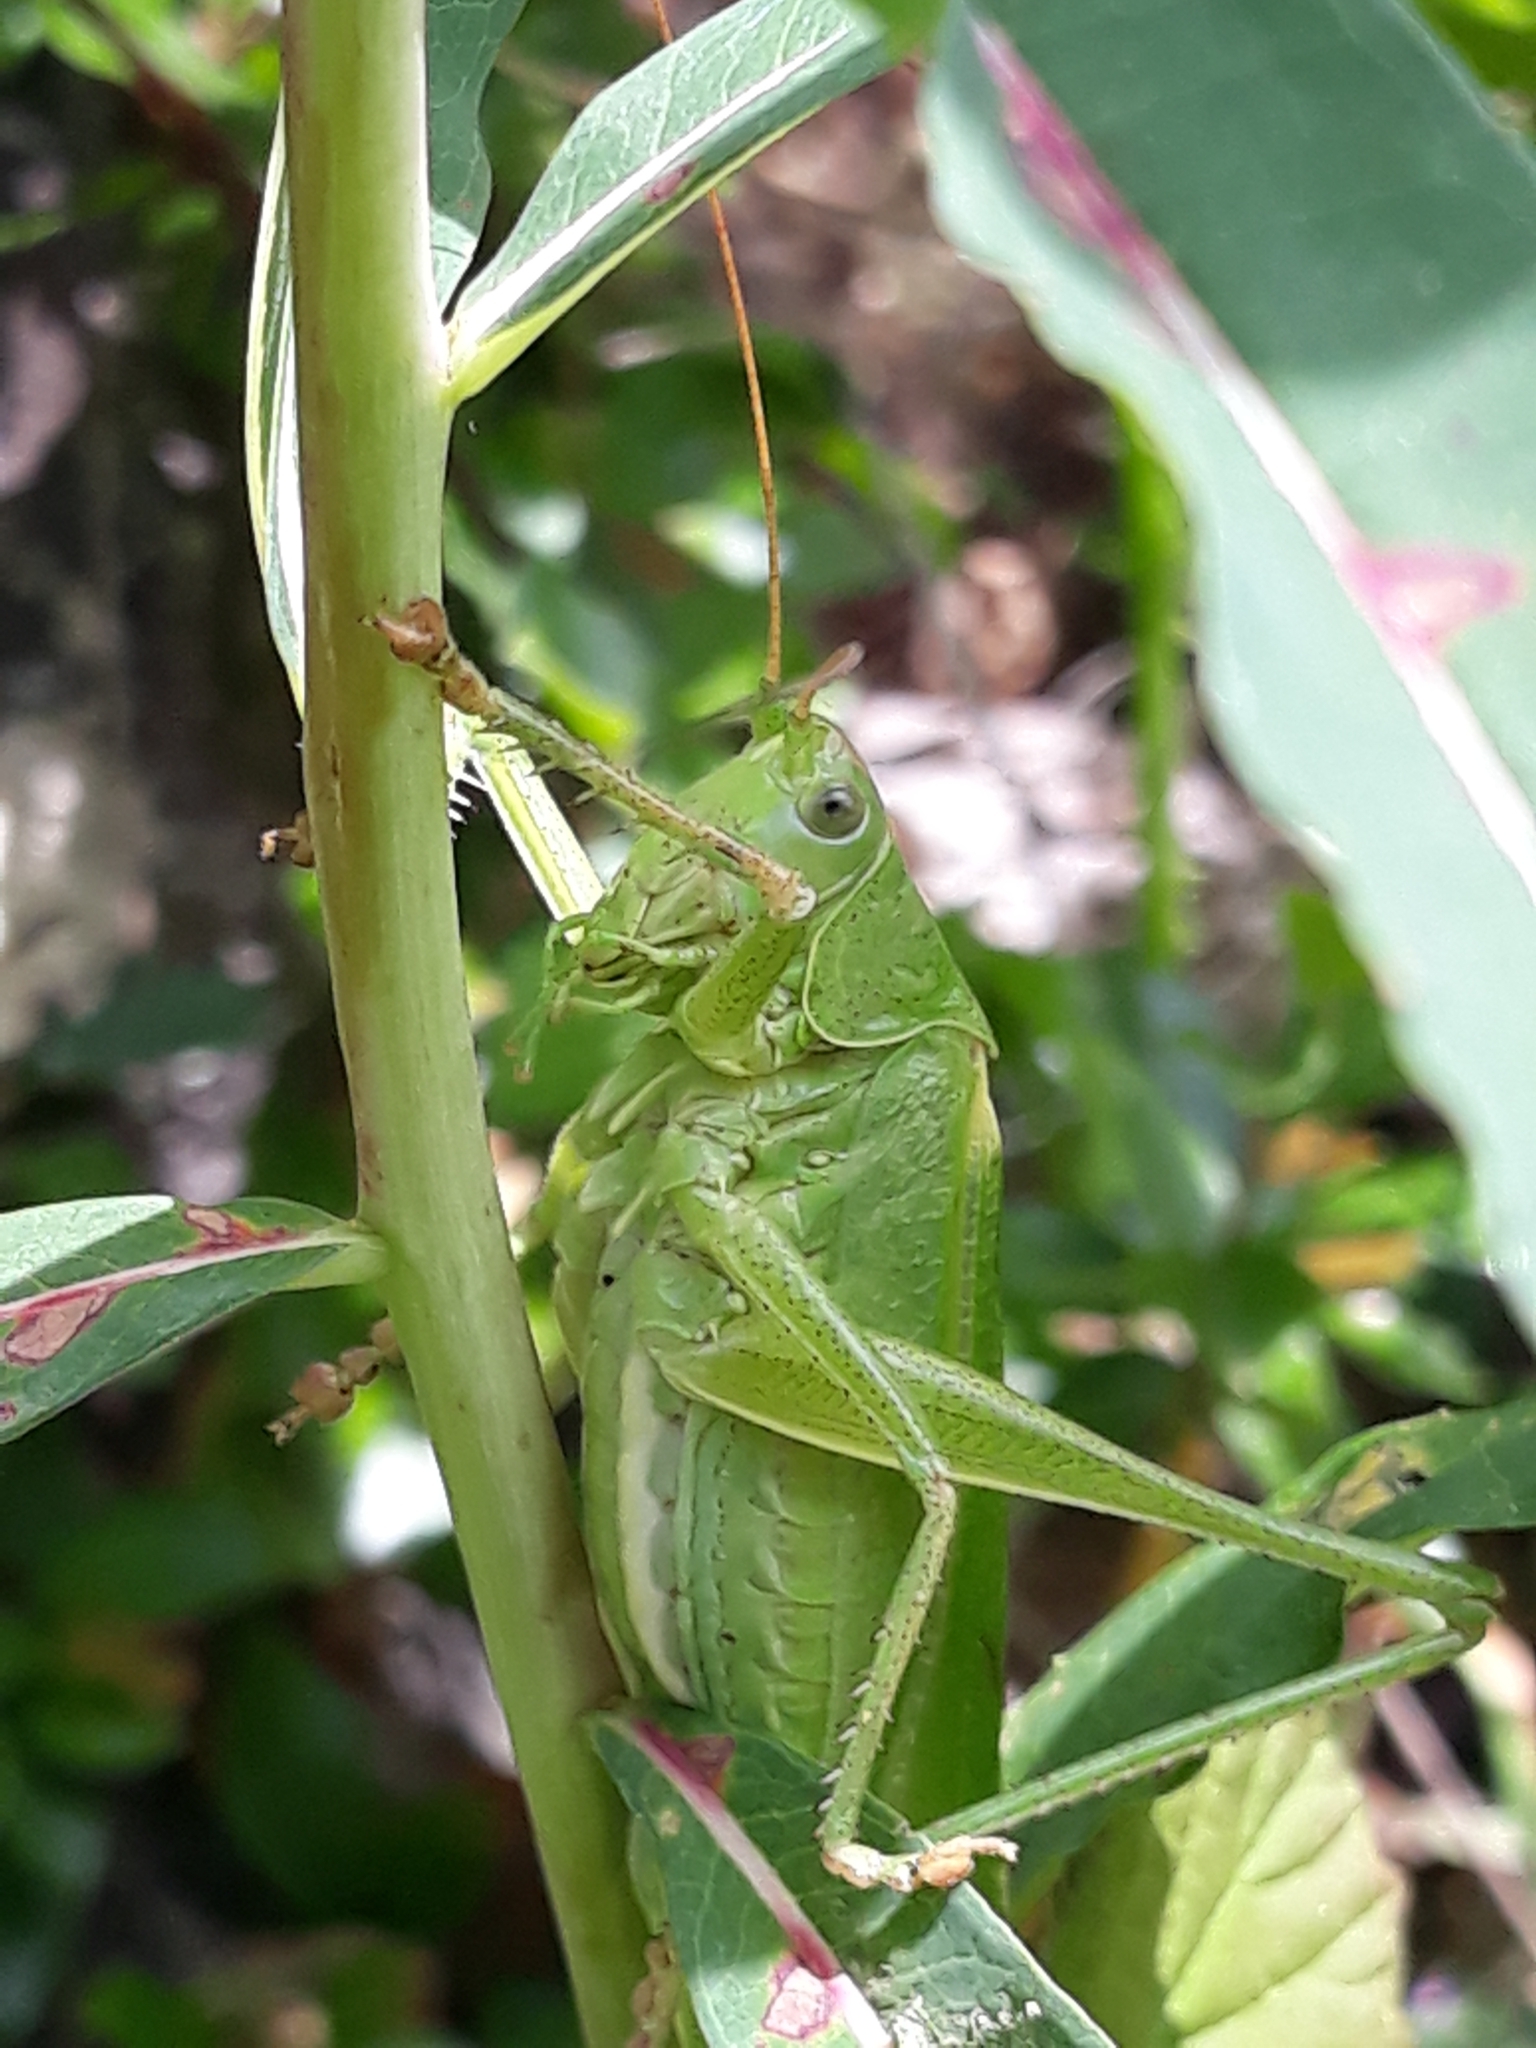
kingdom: Animalia
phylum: Arthropoda
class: Insecta
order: Orthoptera
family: Tettigoniidae
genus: Tettigonia
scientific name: Tettigonia viridissima
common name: Great green bush-cricket
